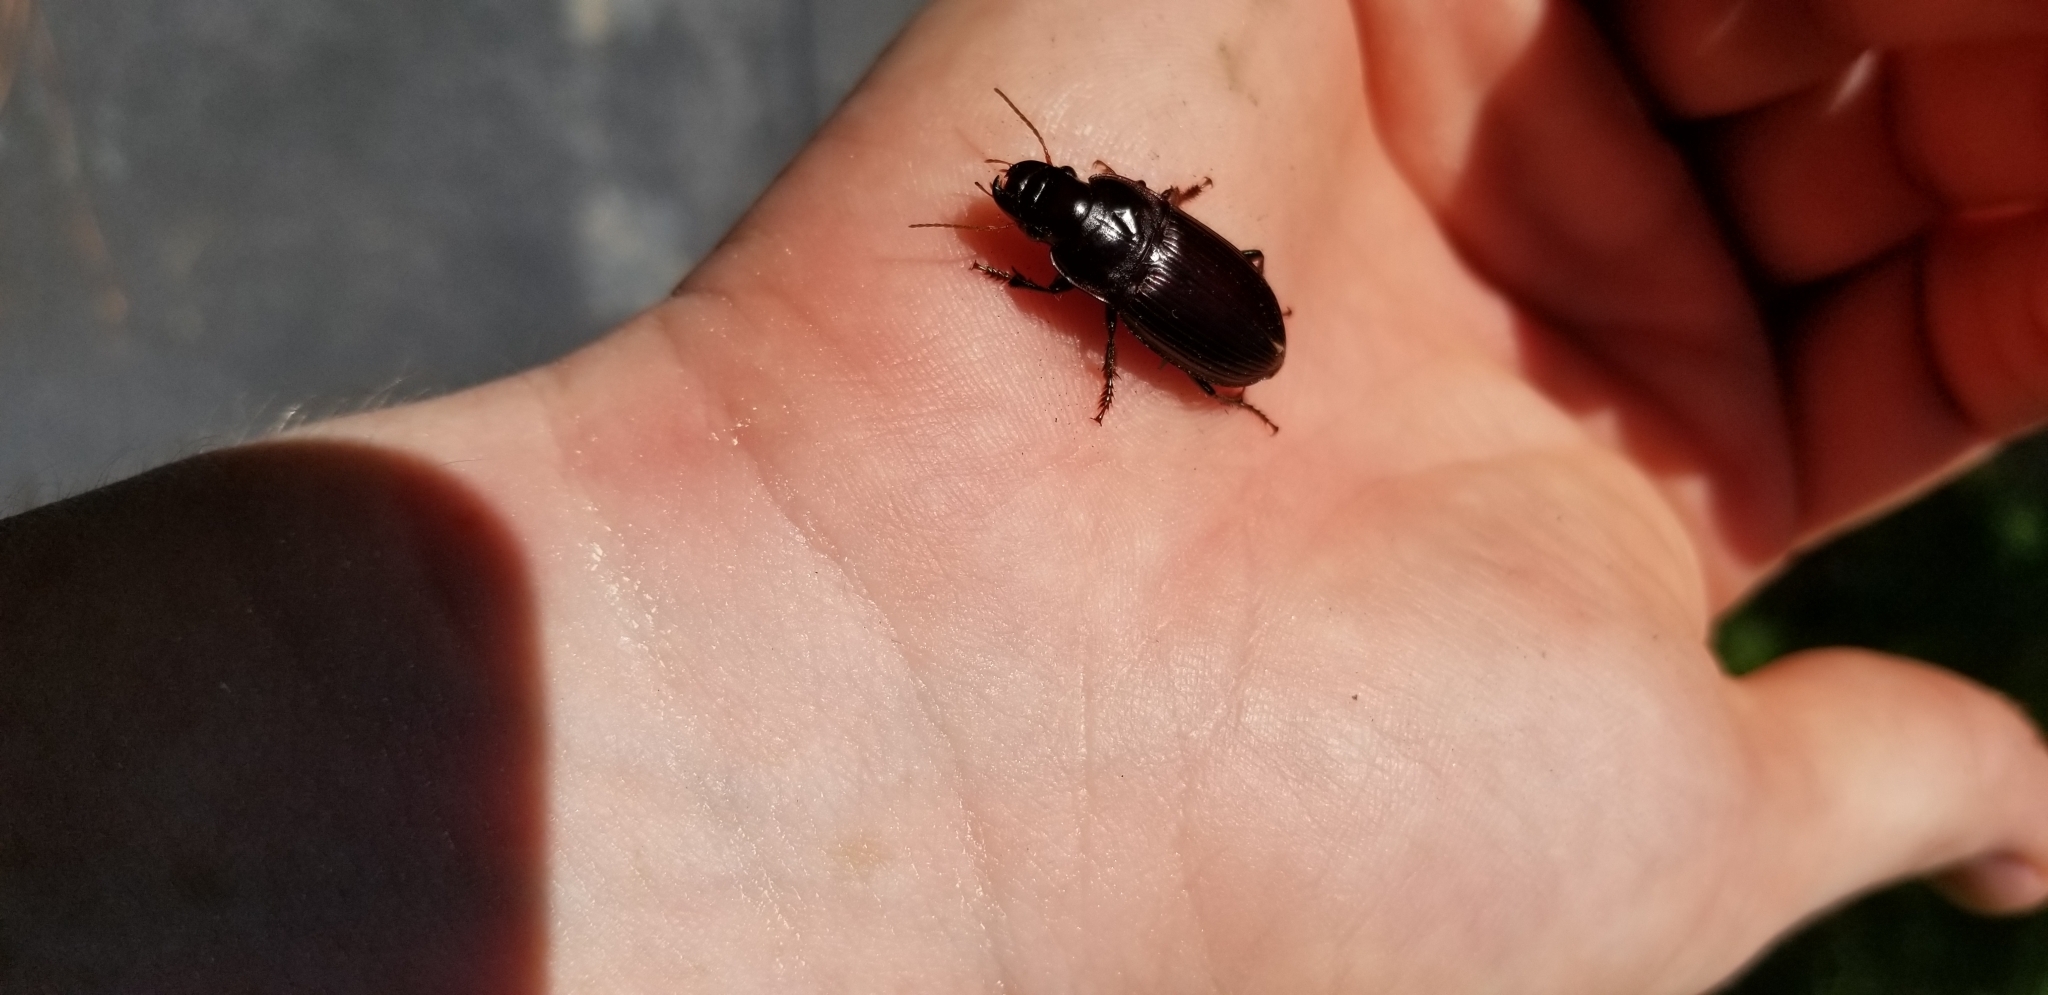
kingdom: Animalia
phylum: Arthropoda
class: Insecta
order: Coleoptera
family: Carabidae
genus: Harpalus
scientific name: Harpalus caliginosus
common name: Murky ground beetle
